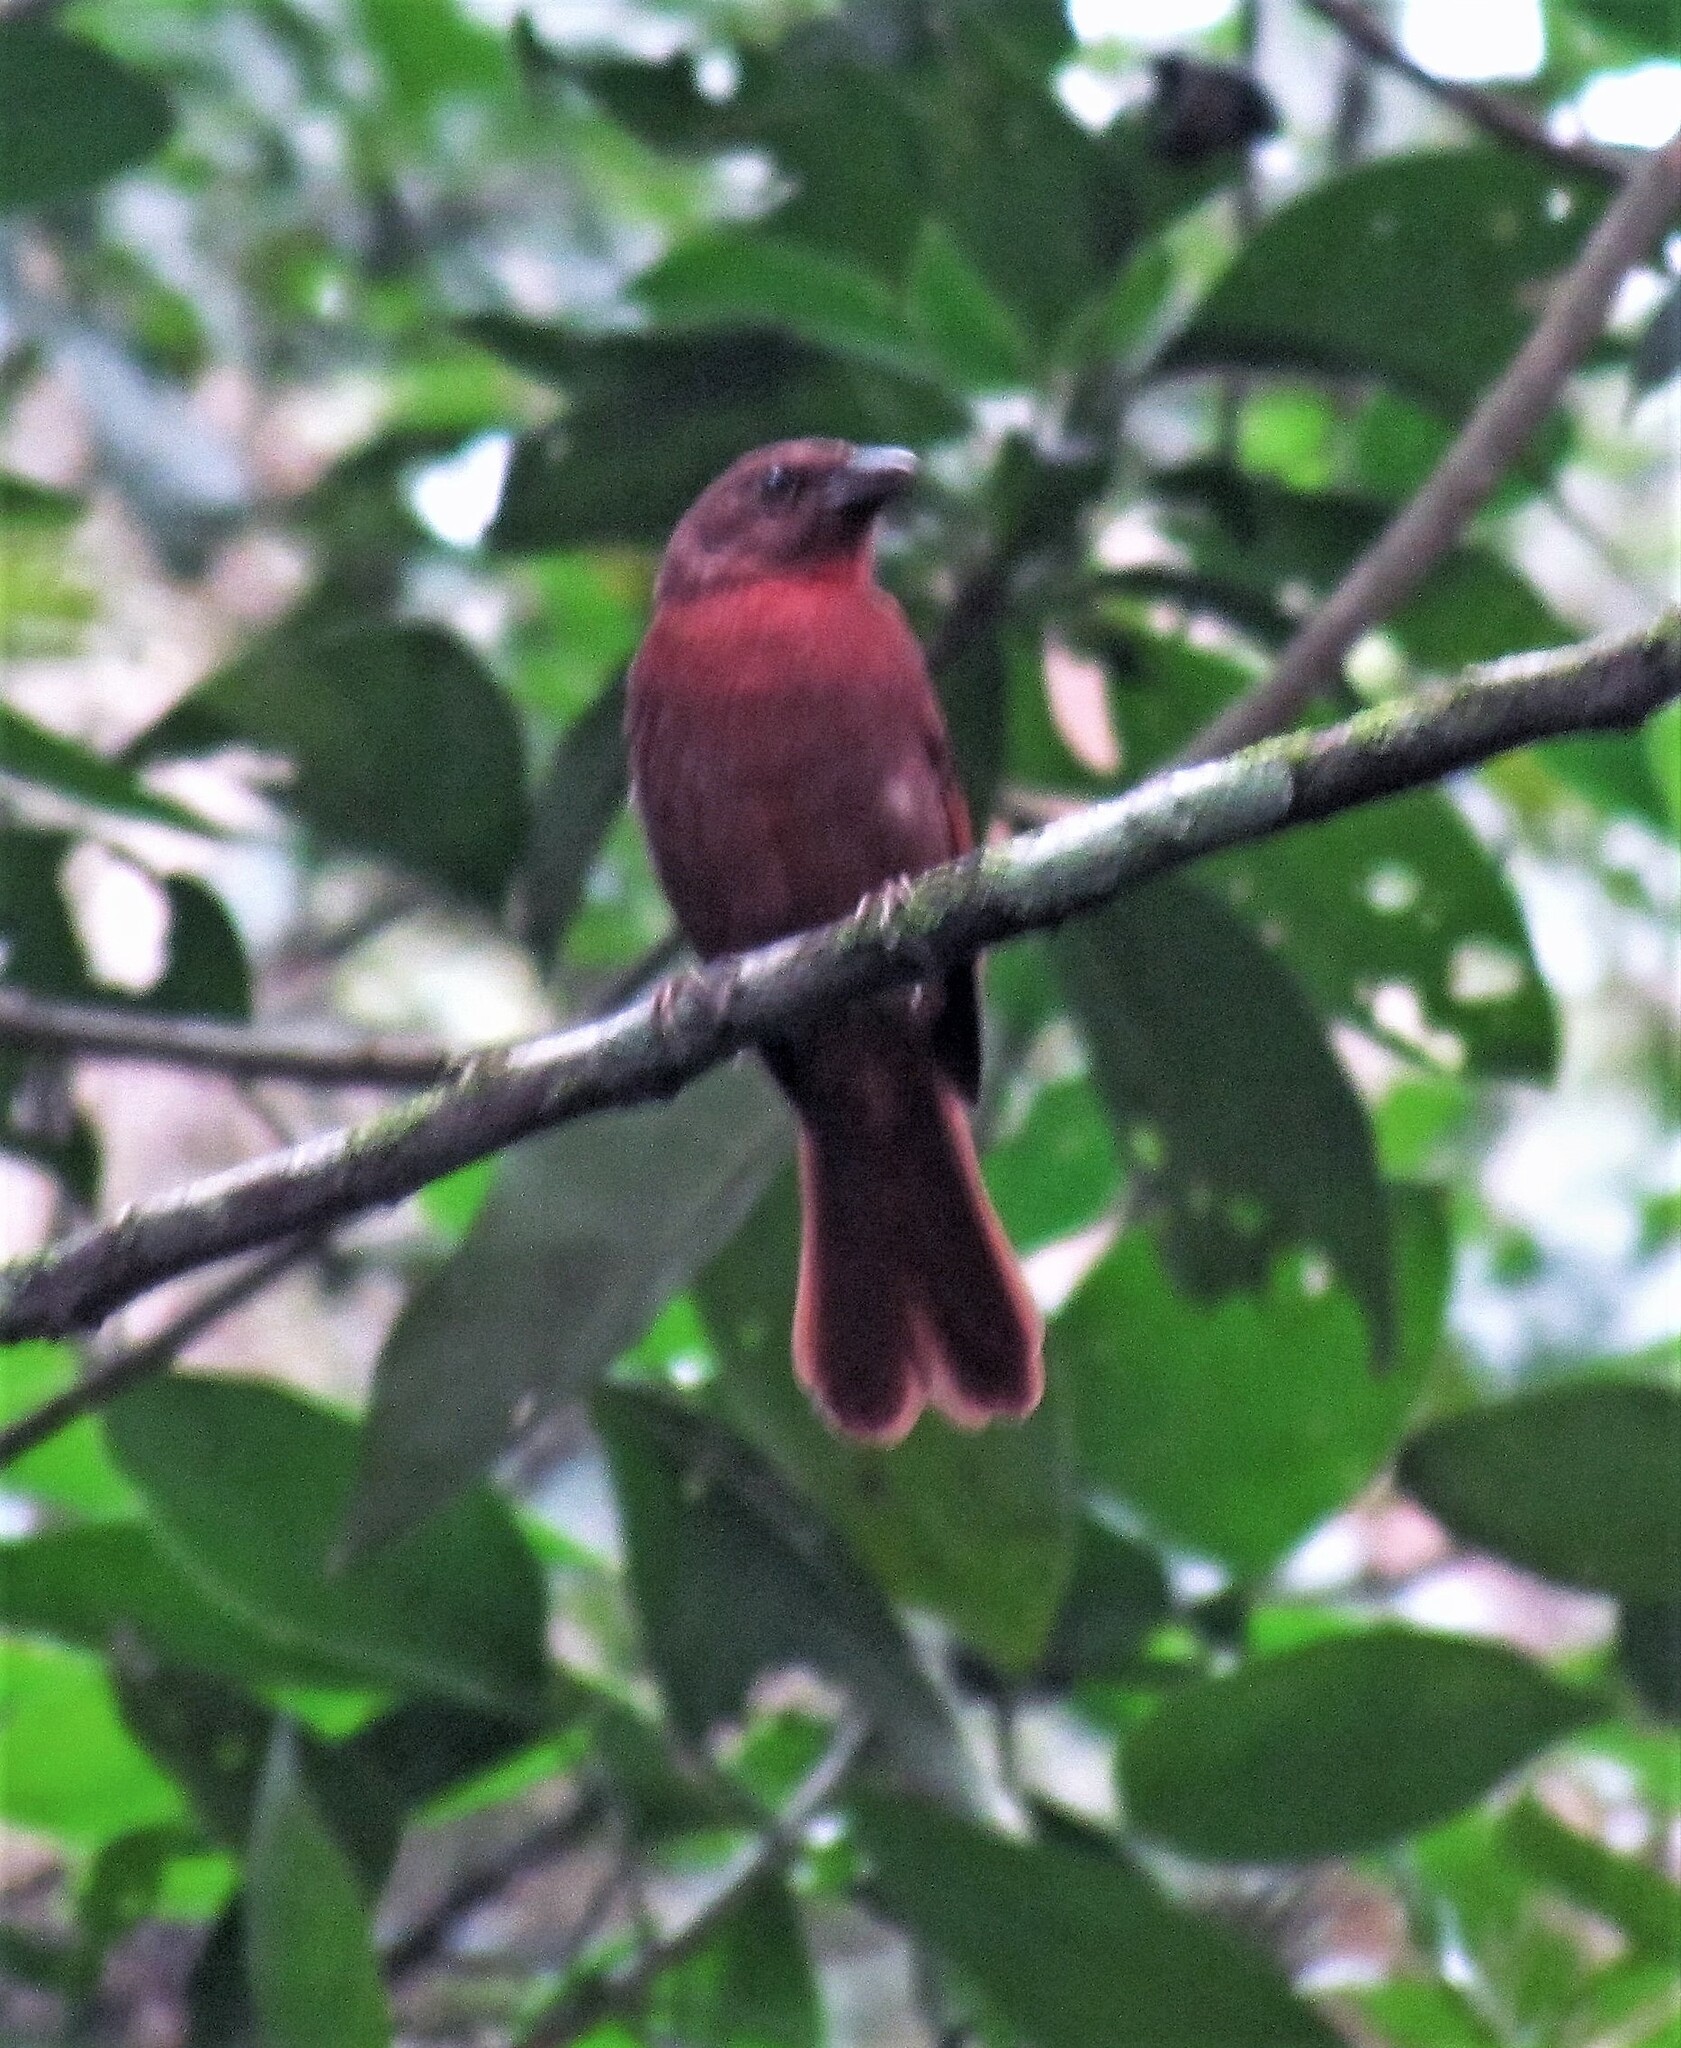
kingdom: Animalia
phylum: Chordata
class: Aves
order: Passeriformes
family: Cardinalidae
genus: Habia
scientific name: Habia rubica
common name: Red-crowned ant-tanager
